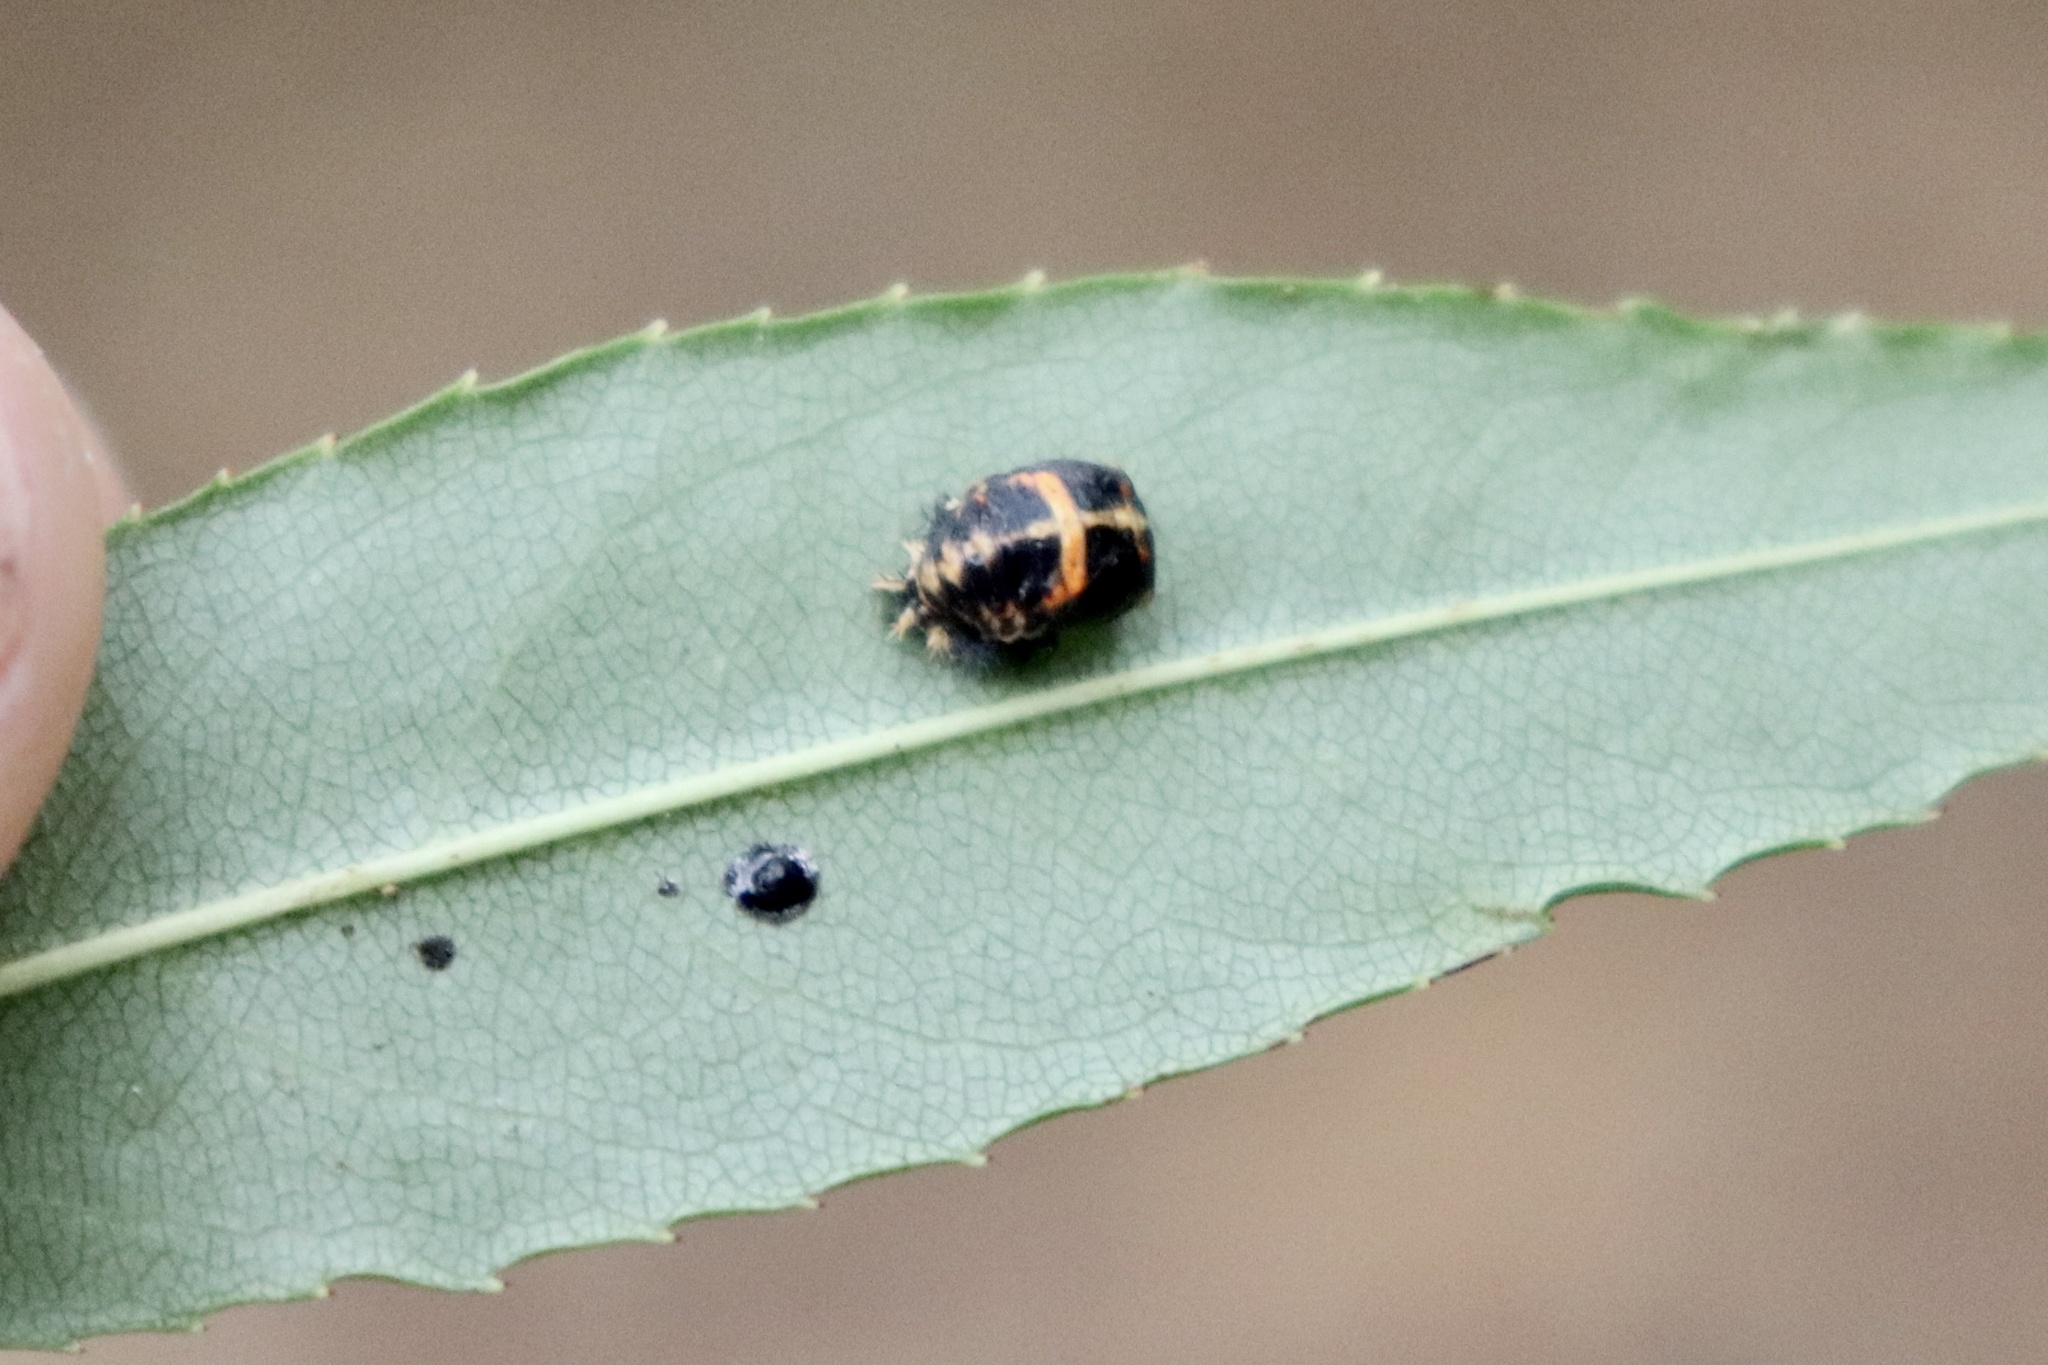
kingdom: Animalia
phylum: Arthropoda
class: Insecta
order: Coleoptera
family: Coccinellidae
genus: Harmonia
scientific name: Harmonia axyridis
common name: Harlequin ladybird
